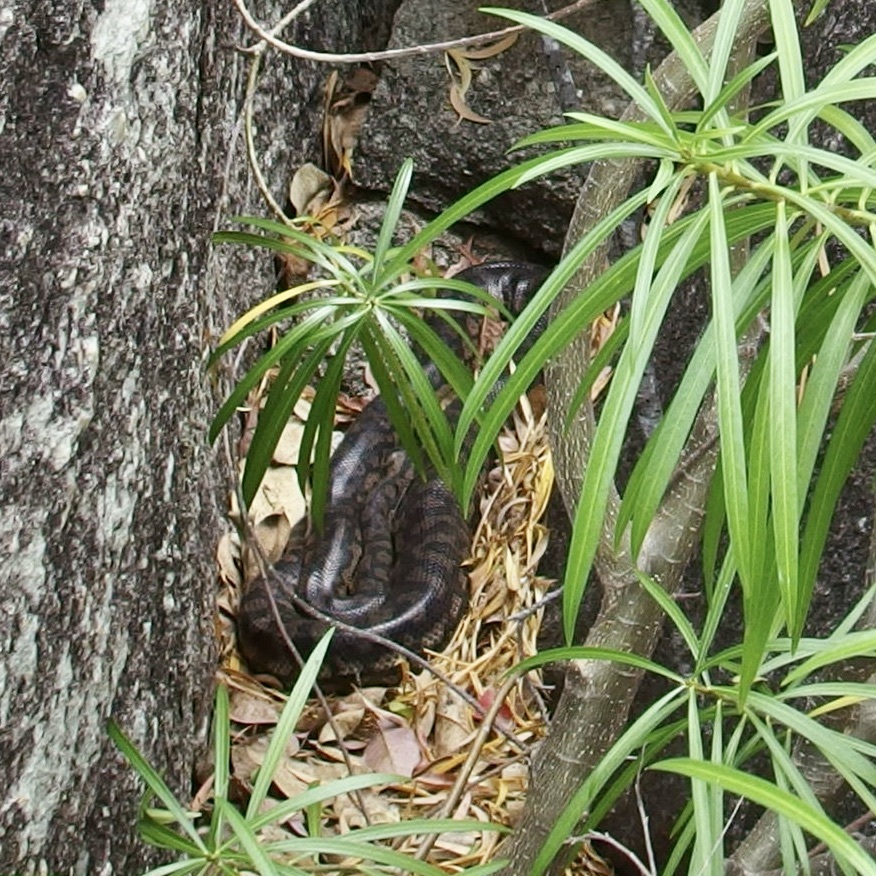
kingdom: Animalia
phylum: Chordata
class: Squamata
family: Pythonidae
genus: Morelia
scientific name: Morelia spilota
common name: Carpet python
